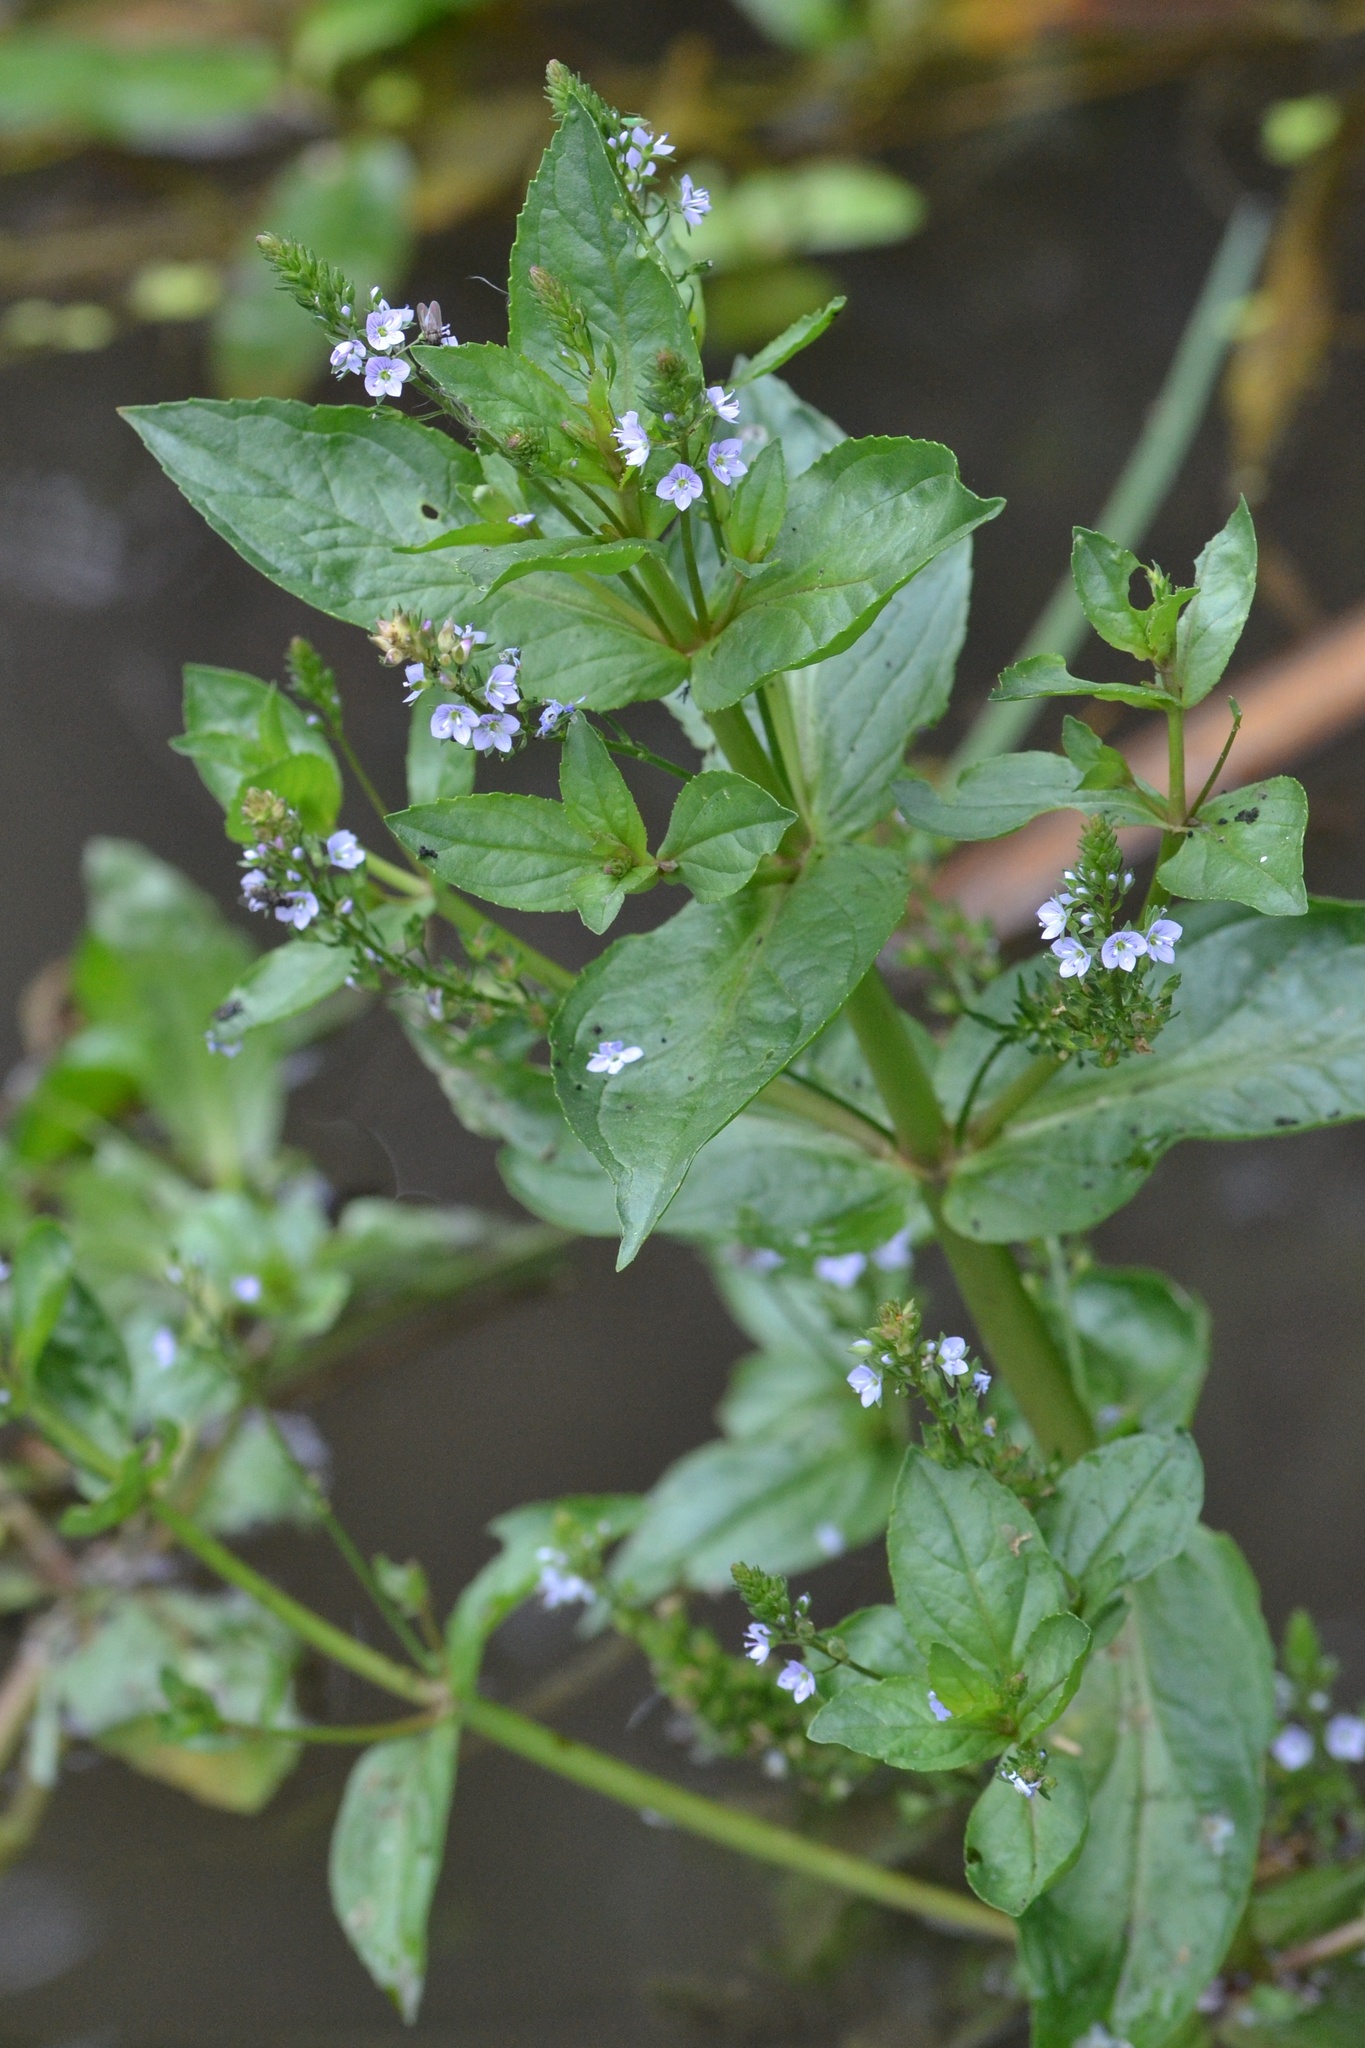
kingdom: Plantae
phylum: Tracheophyta
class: Magnoliopsida
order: Lamiales
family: Plantaginaceae
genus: Veronica
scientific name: Veronica anagallis-aquatica
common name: Water speedwell
